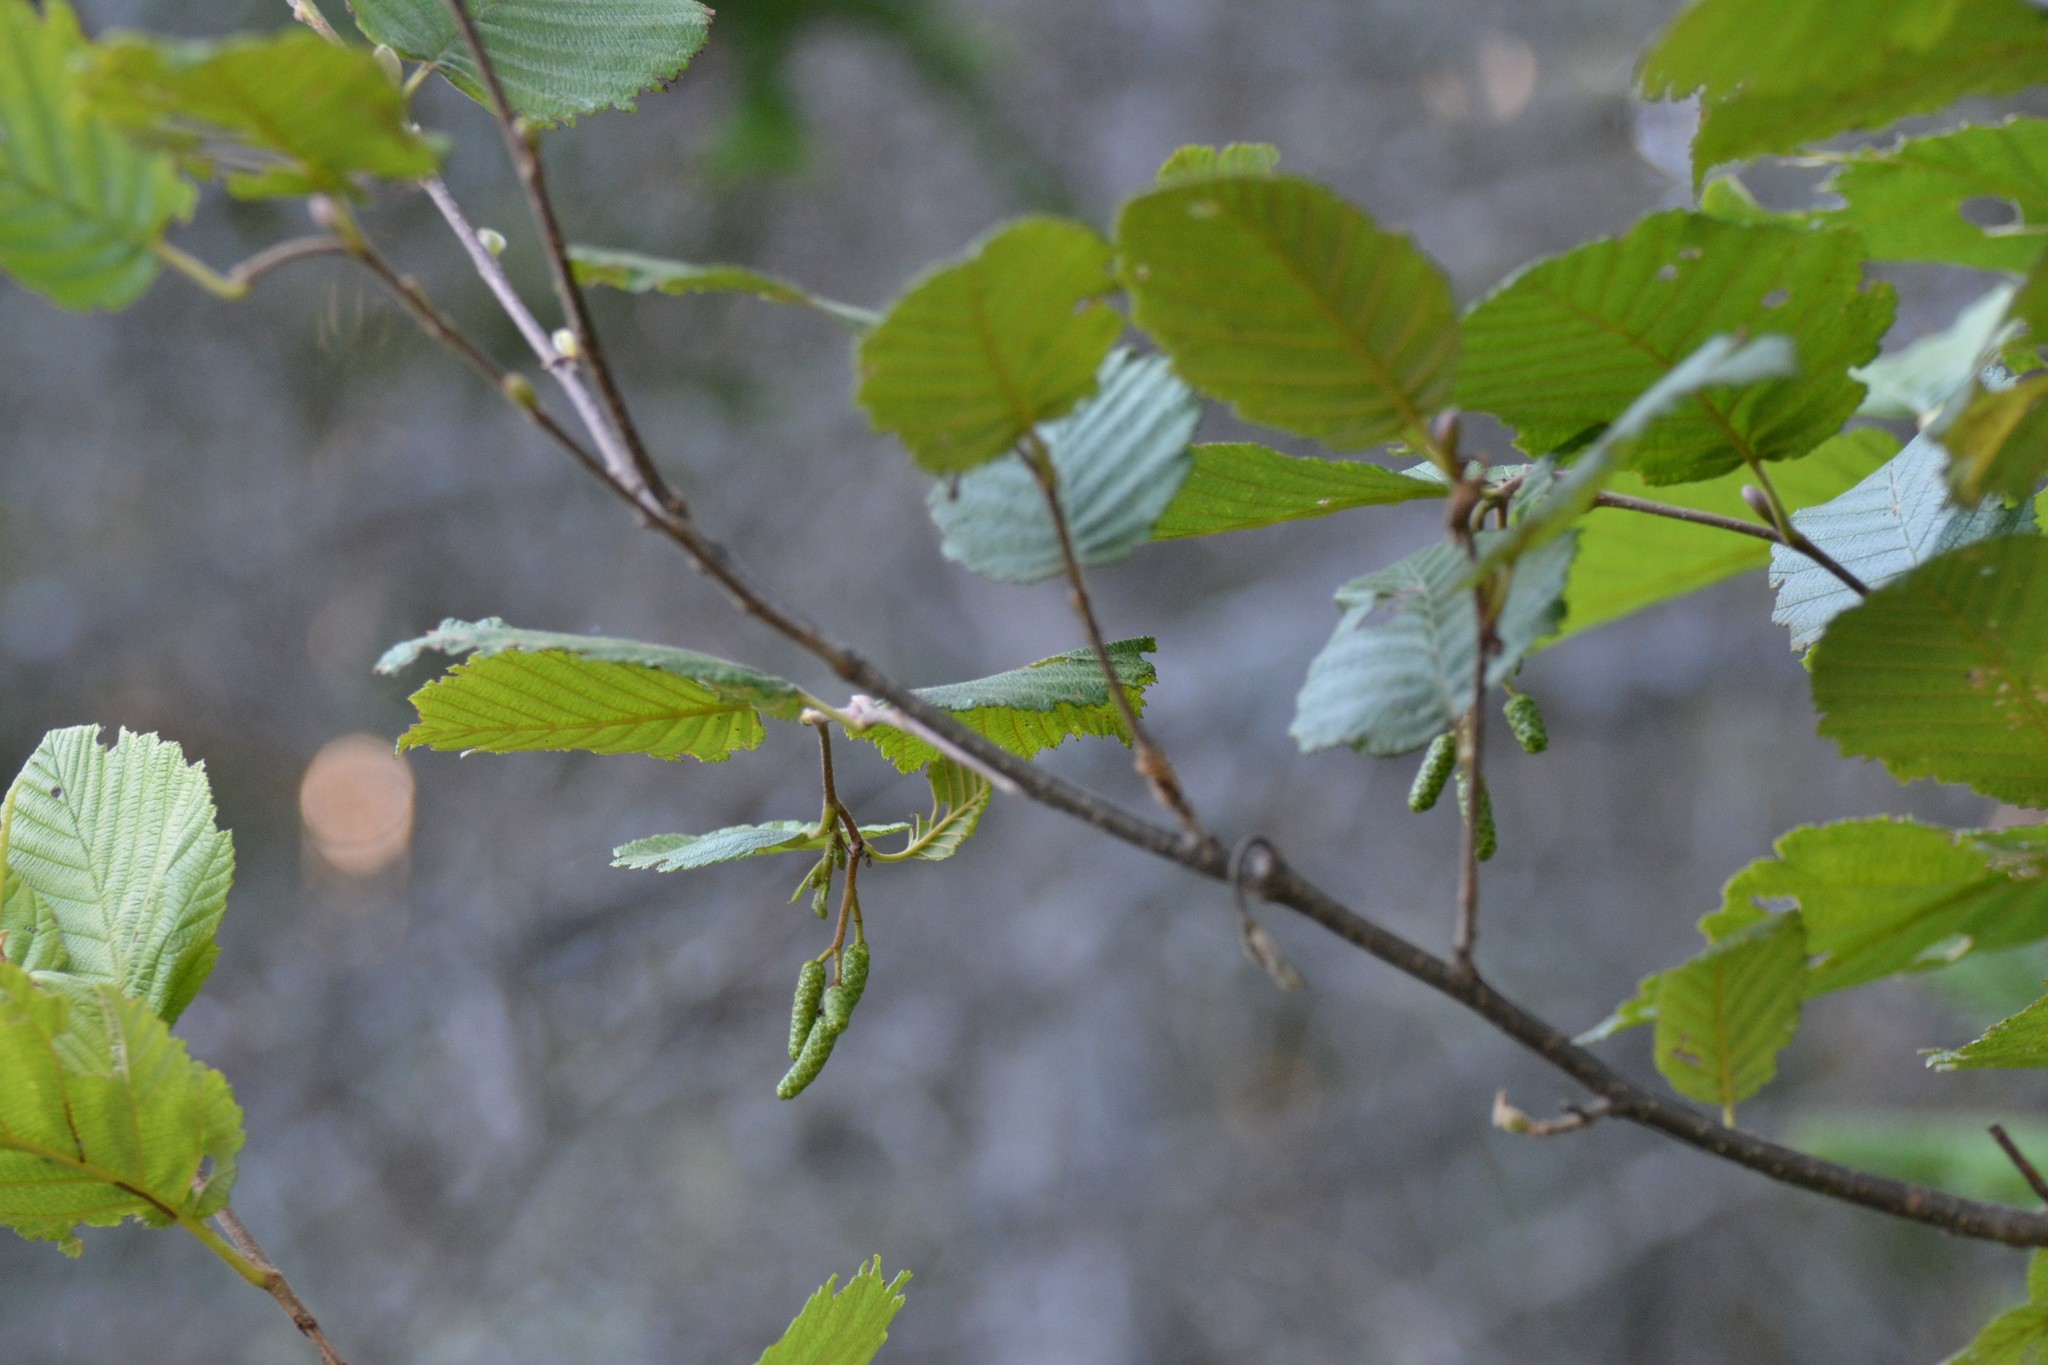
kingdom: Plantae
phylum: Tracheophyta
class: Magnoliopsida
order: Fagales
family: Betulaceae
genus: Alnus
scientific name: Alnus incana
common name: Grey alder
